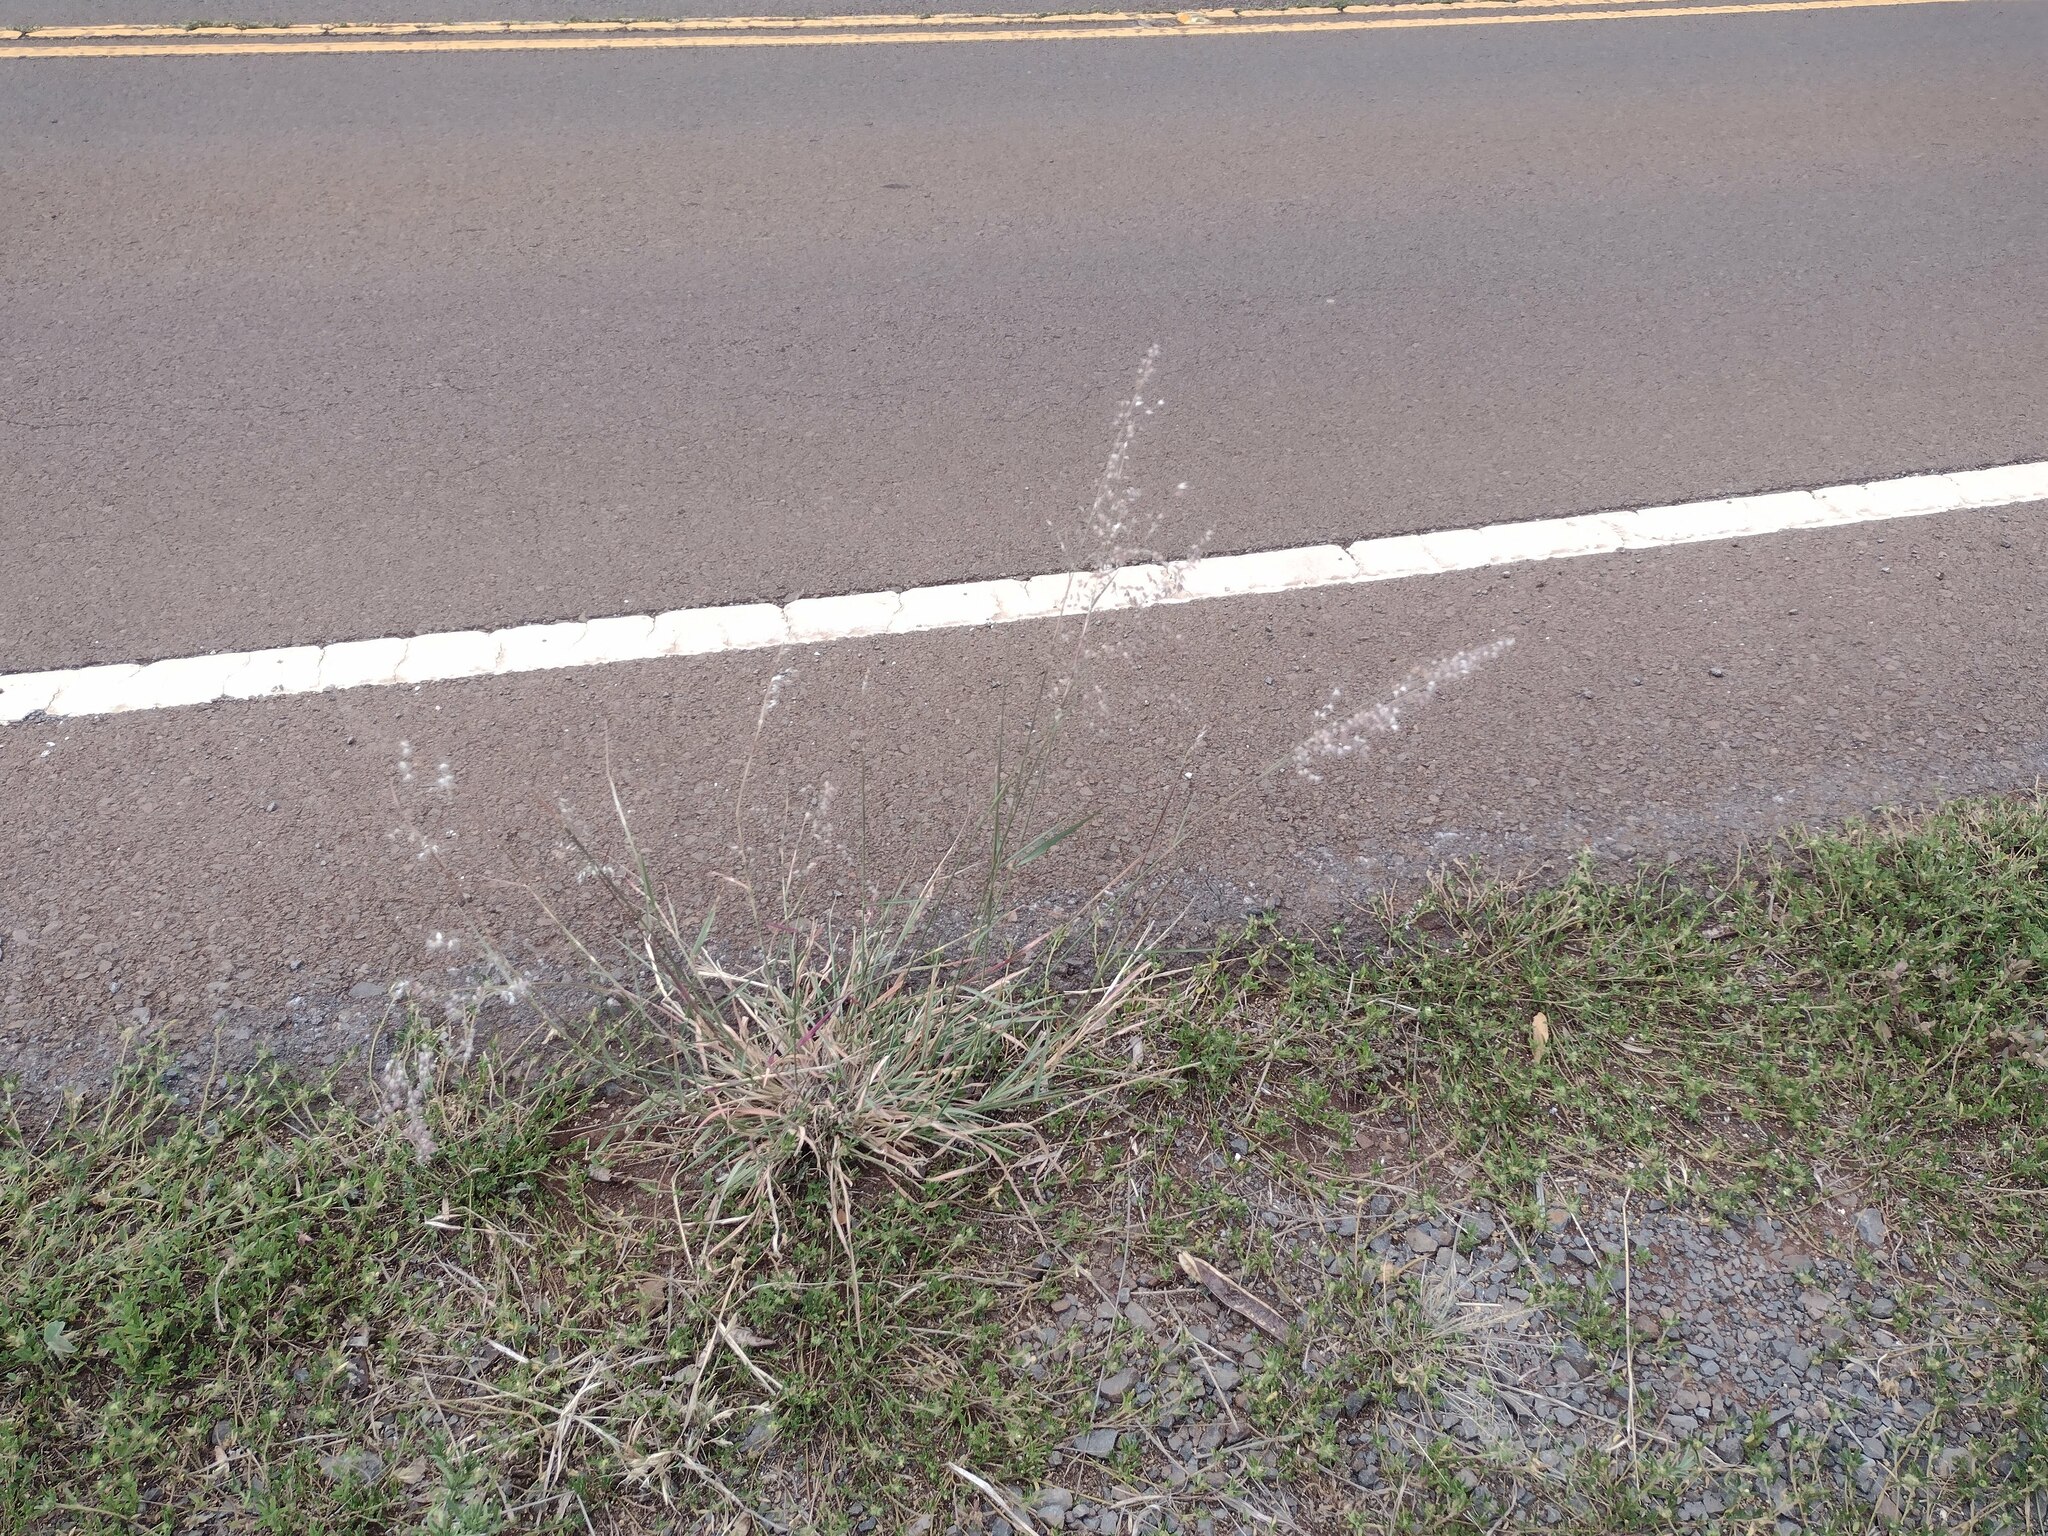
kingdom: Plantae
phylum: Tracheophyta
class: Liliopsida
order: Poales
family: Poaceae
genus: Melinis
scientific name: Melinis repens
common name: Rose natal grass
